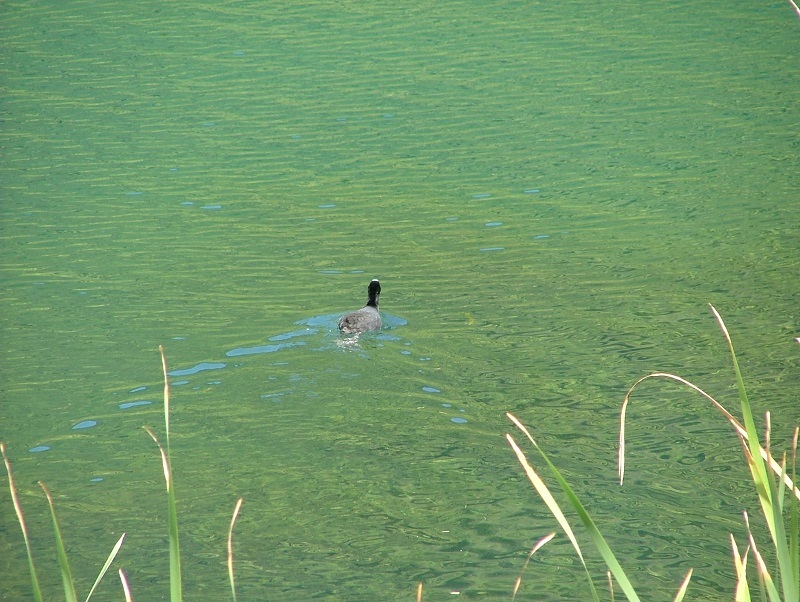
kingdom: Animalia
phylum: Chordata
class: Aves
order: Gruiformes
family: Rallidae
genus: Fulica
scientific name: Fulica atra
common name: Eurasian coot
